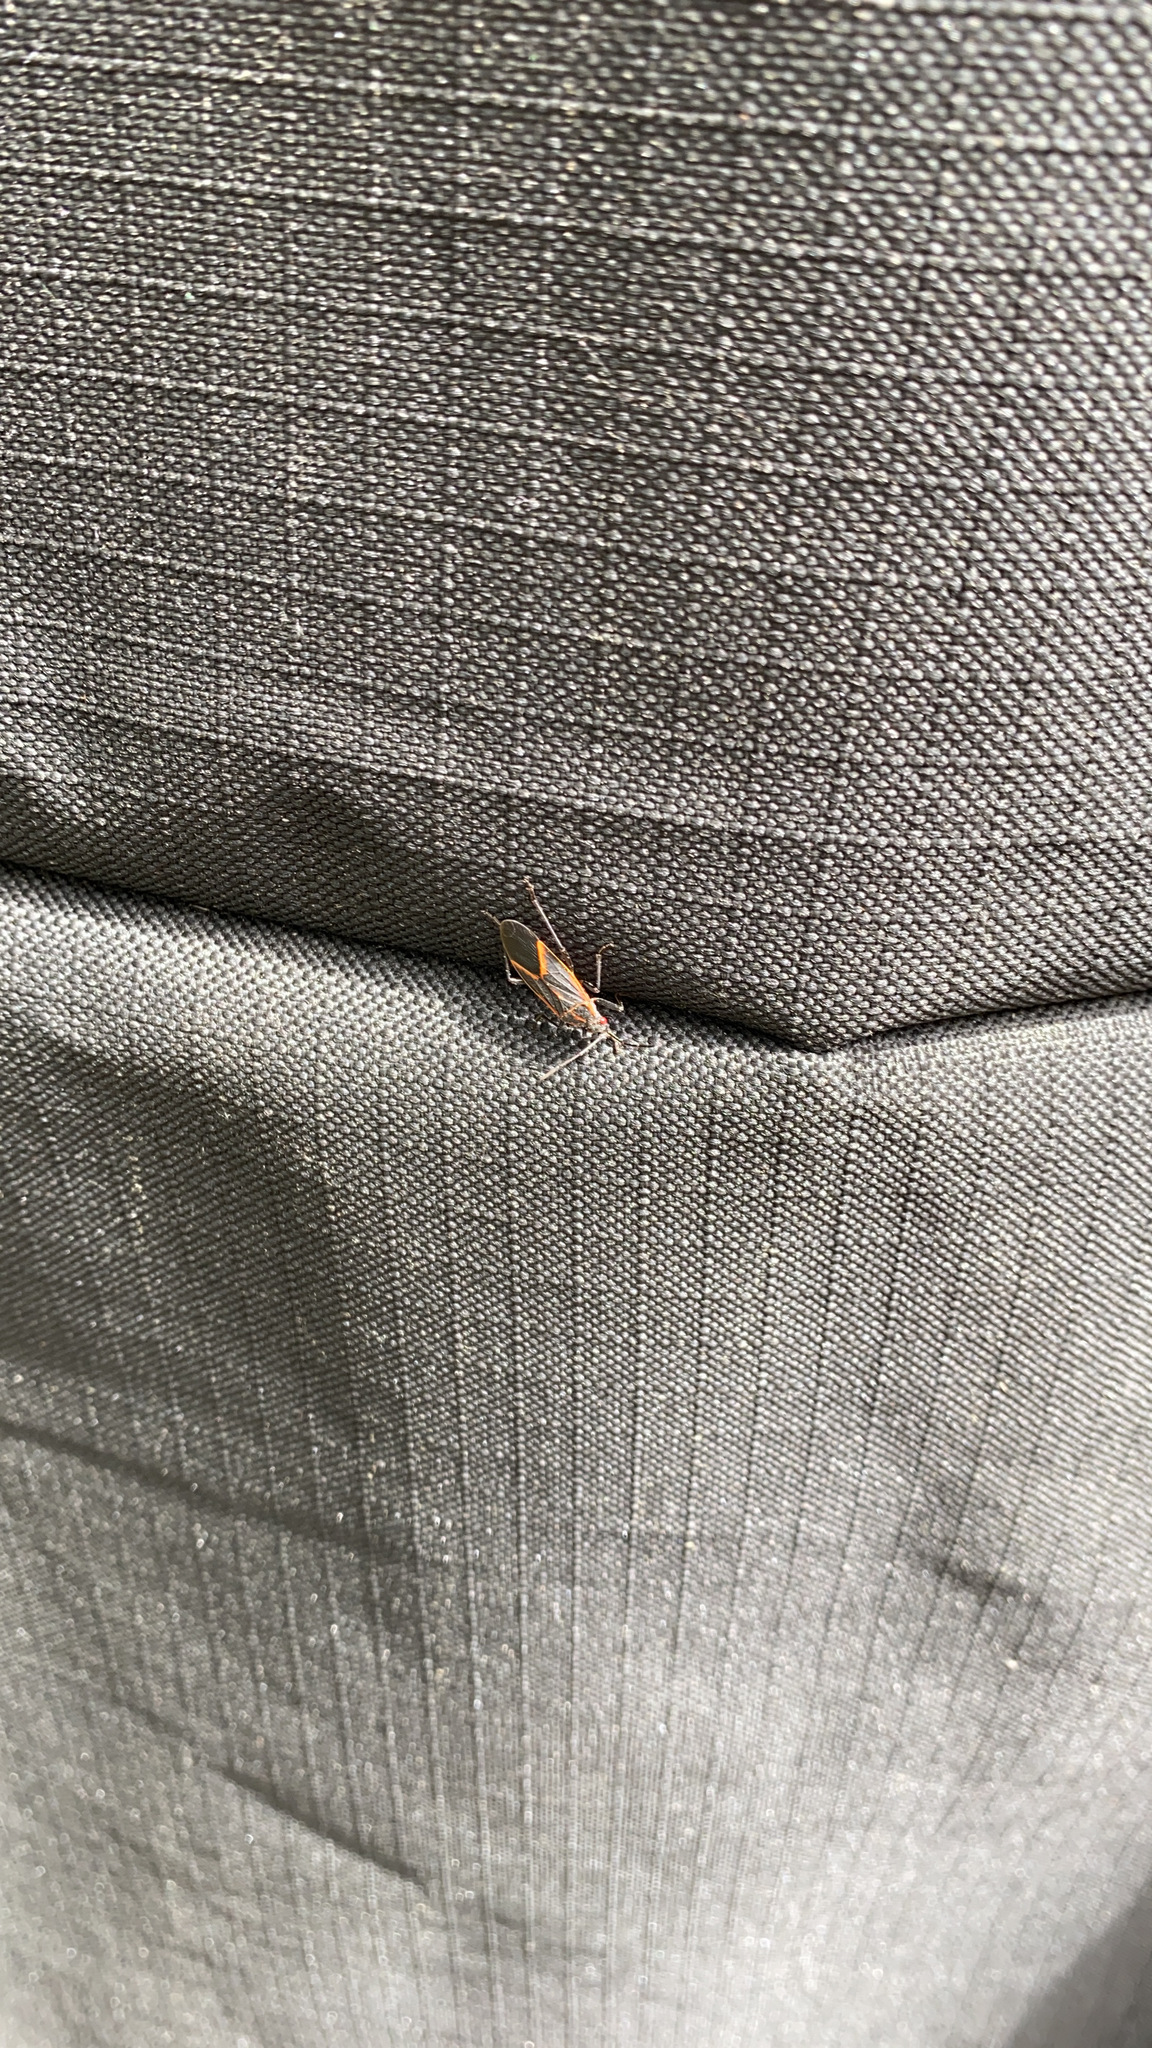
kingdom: Animalia
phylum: Arthropoda
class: Insecta
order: Hemiptera
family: Rhopalidae
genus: Boisea
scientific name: Boisea trivittata
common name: Boxelder bug
